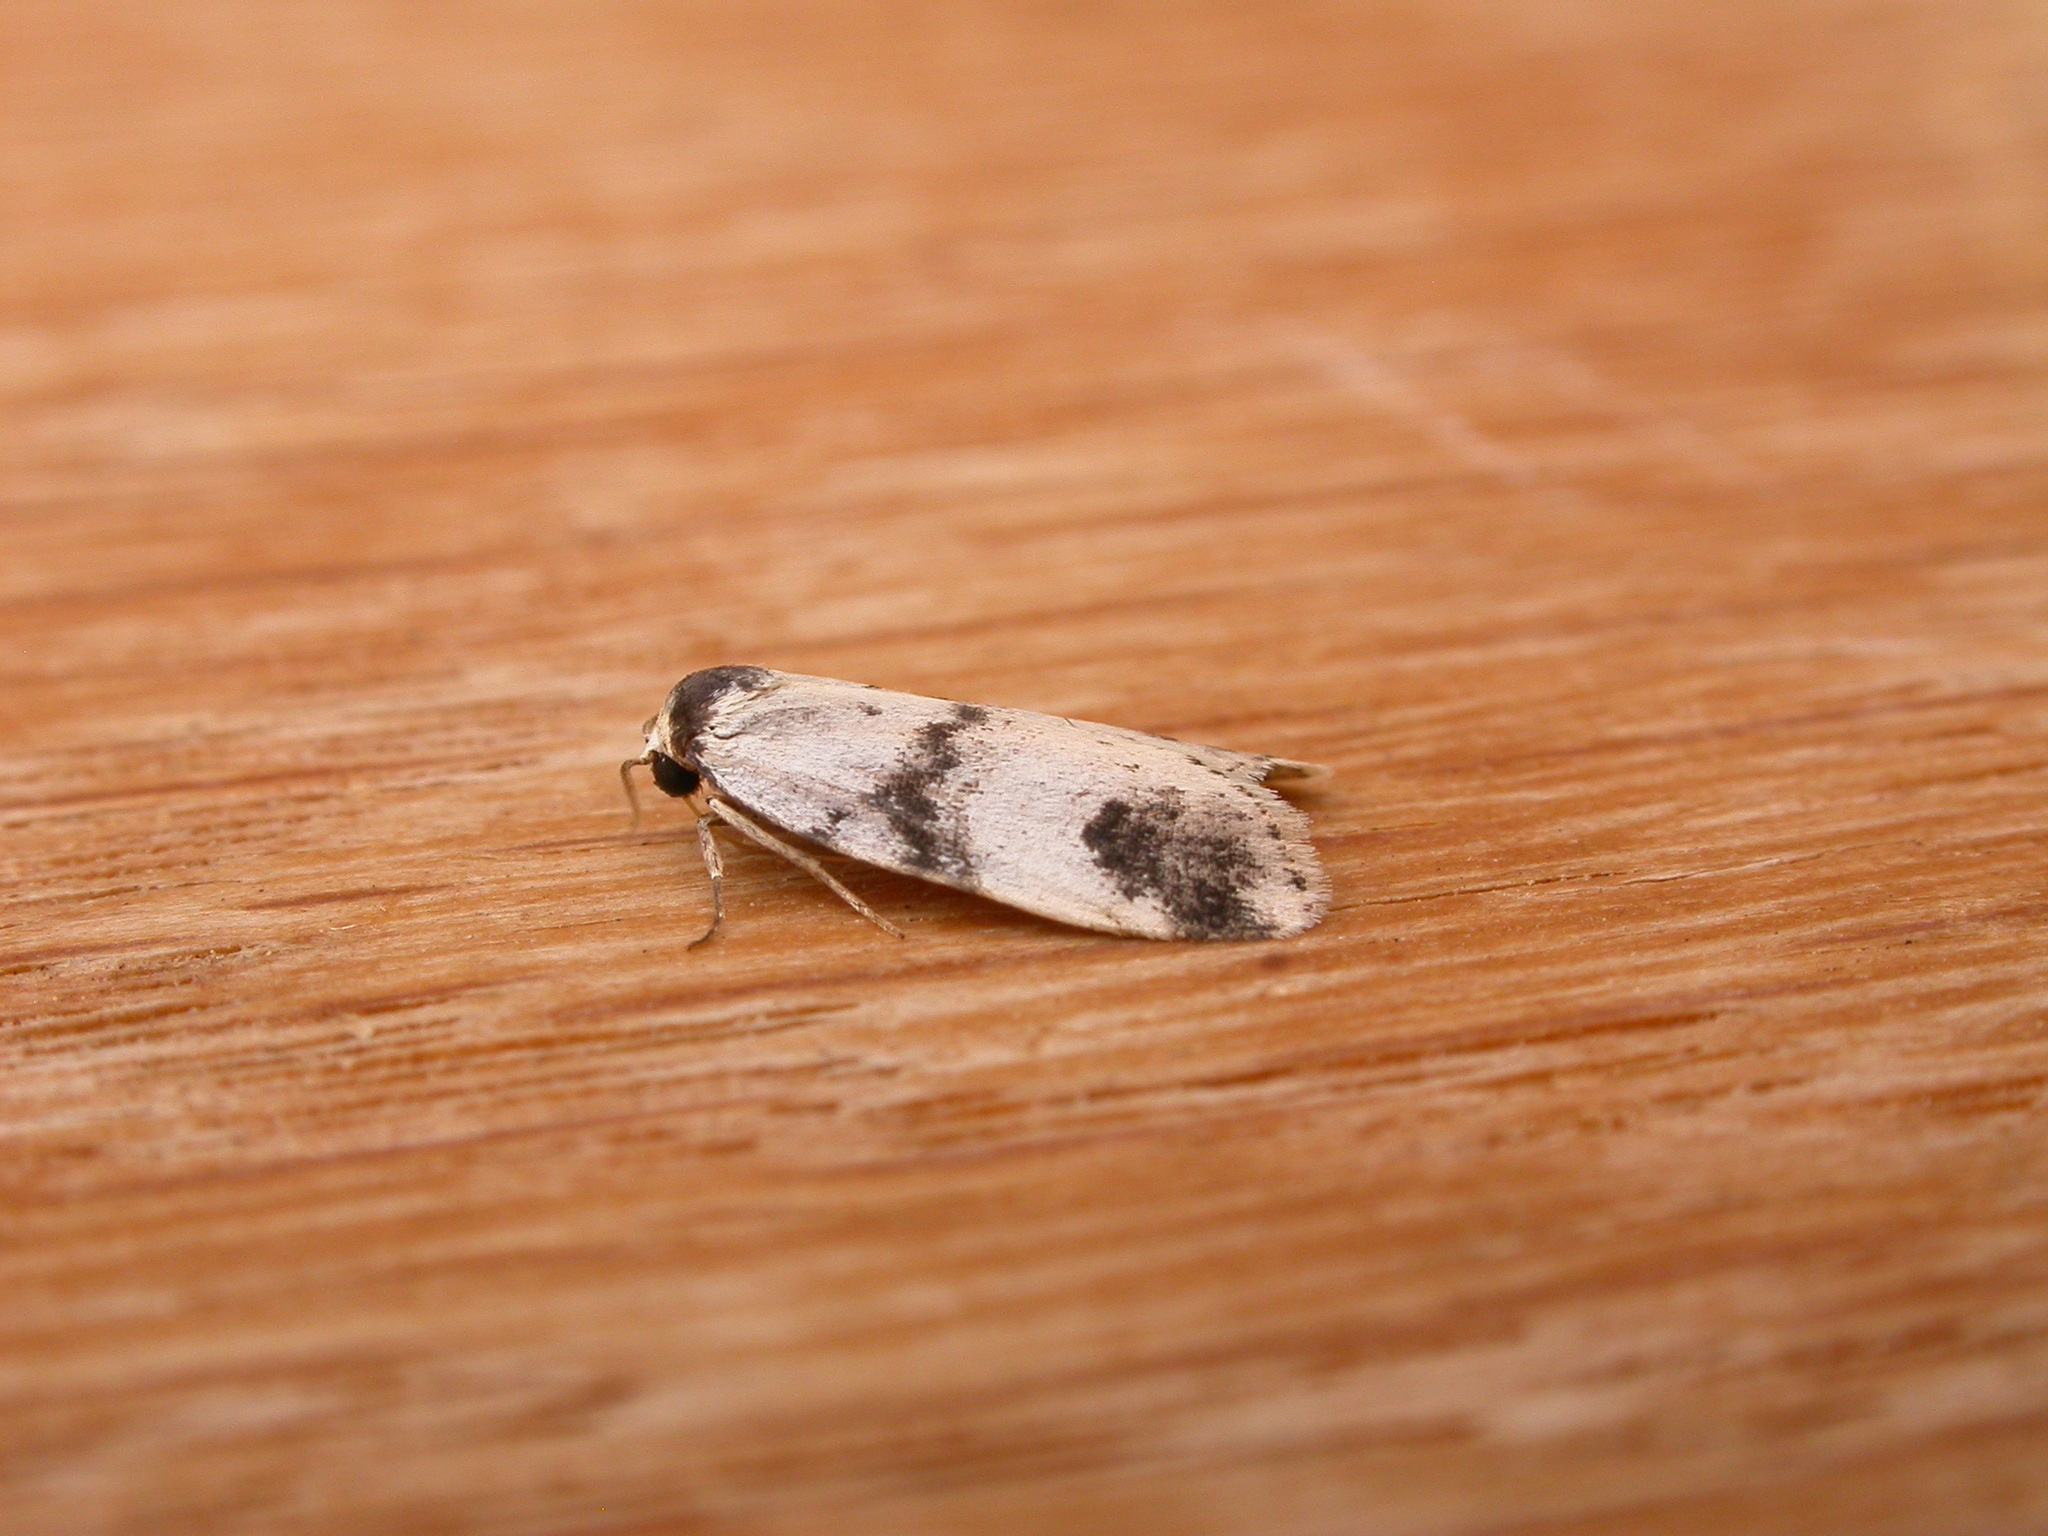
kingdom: Animalia
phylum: Arthropoda
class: Insecta
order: Lepidoptera
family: Erebidae
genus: Thallarcha
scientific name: Thallarcha sparsana
